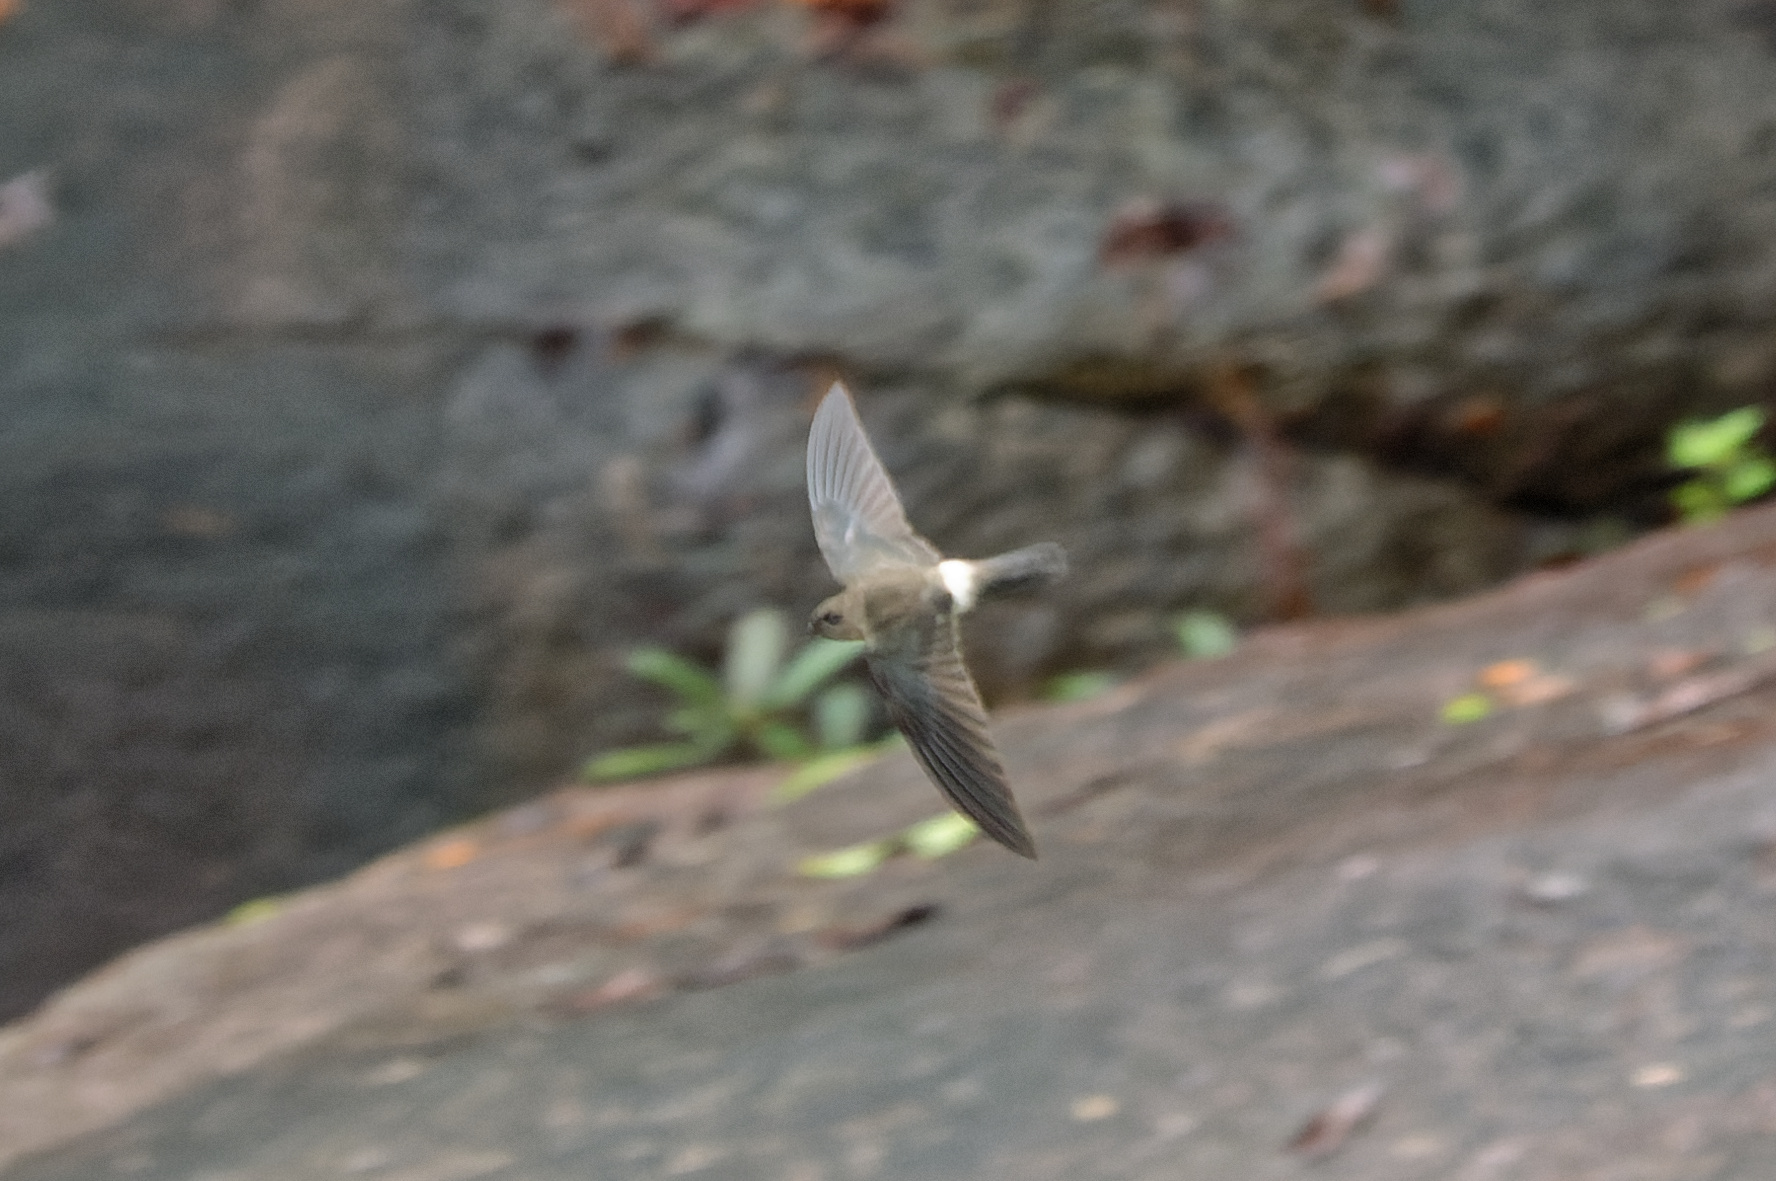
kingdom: Animalia
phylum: Chordata
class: Aves
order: Apodiformes
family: Apodidae
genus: Aerodramus
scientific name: Aerodramus terraereginae
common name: Australian swiftlet
